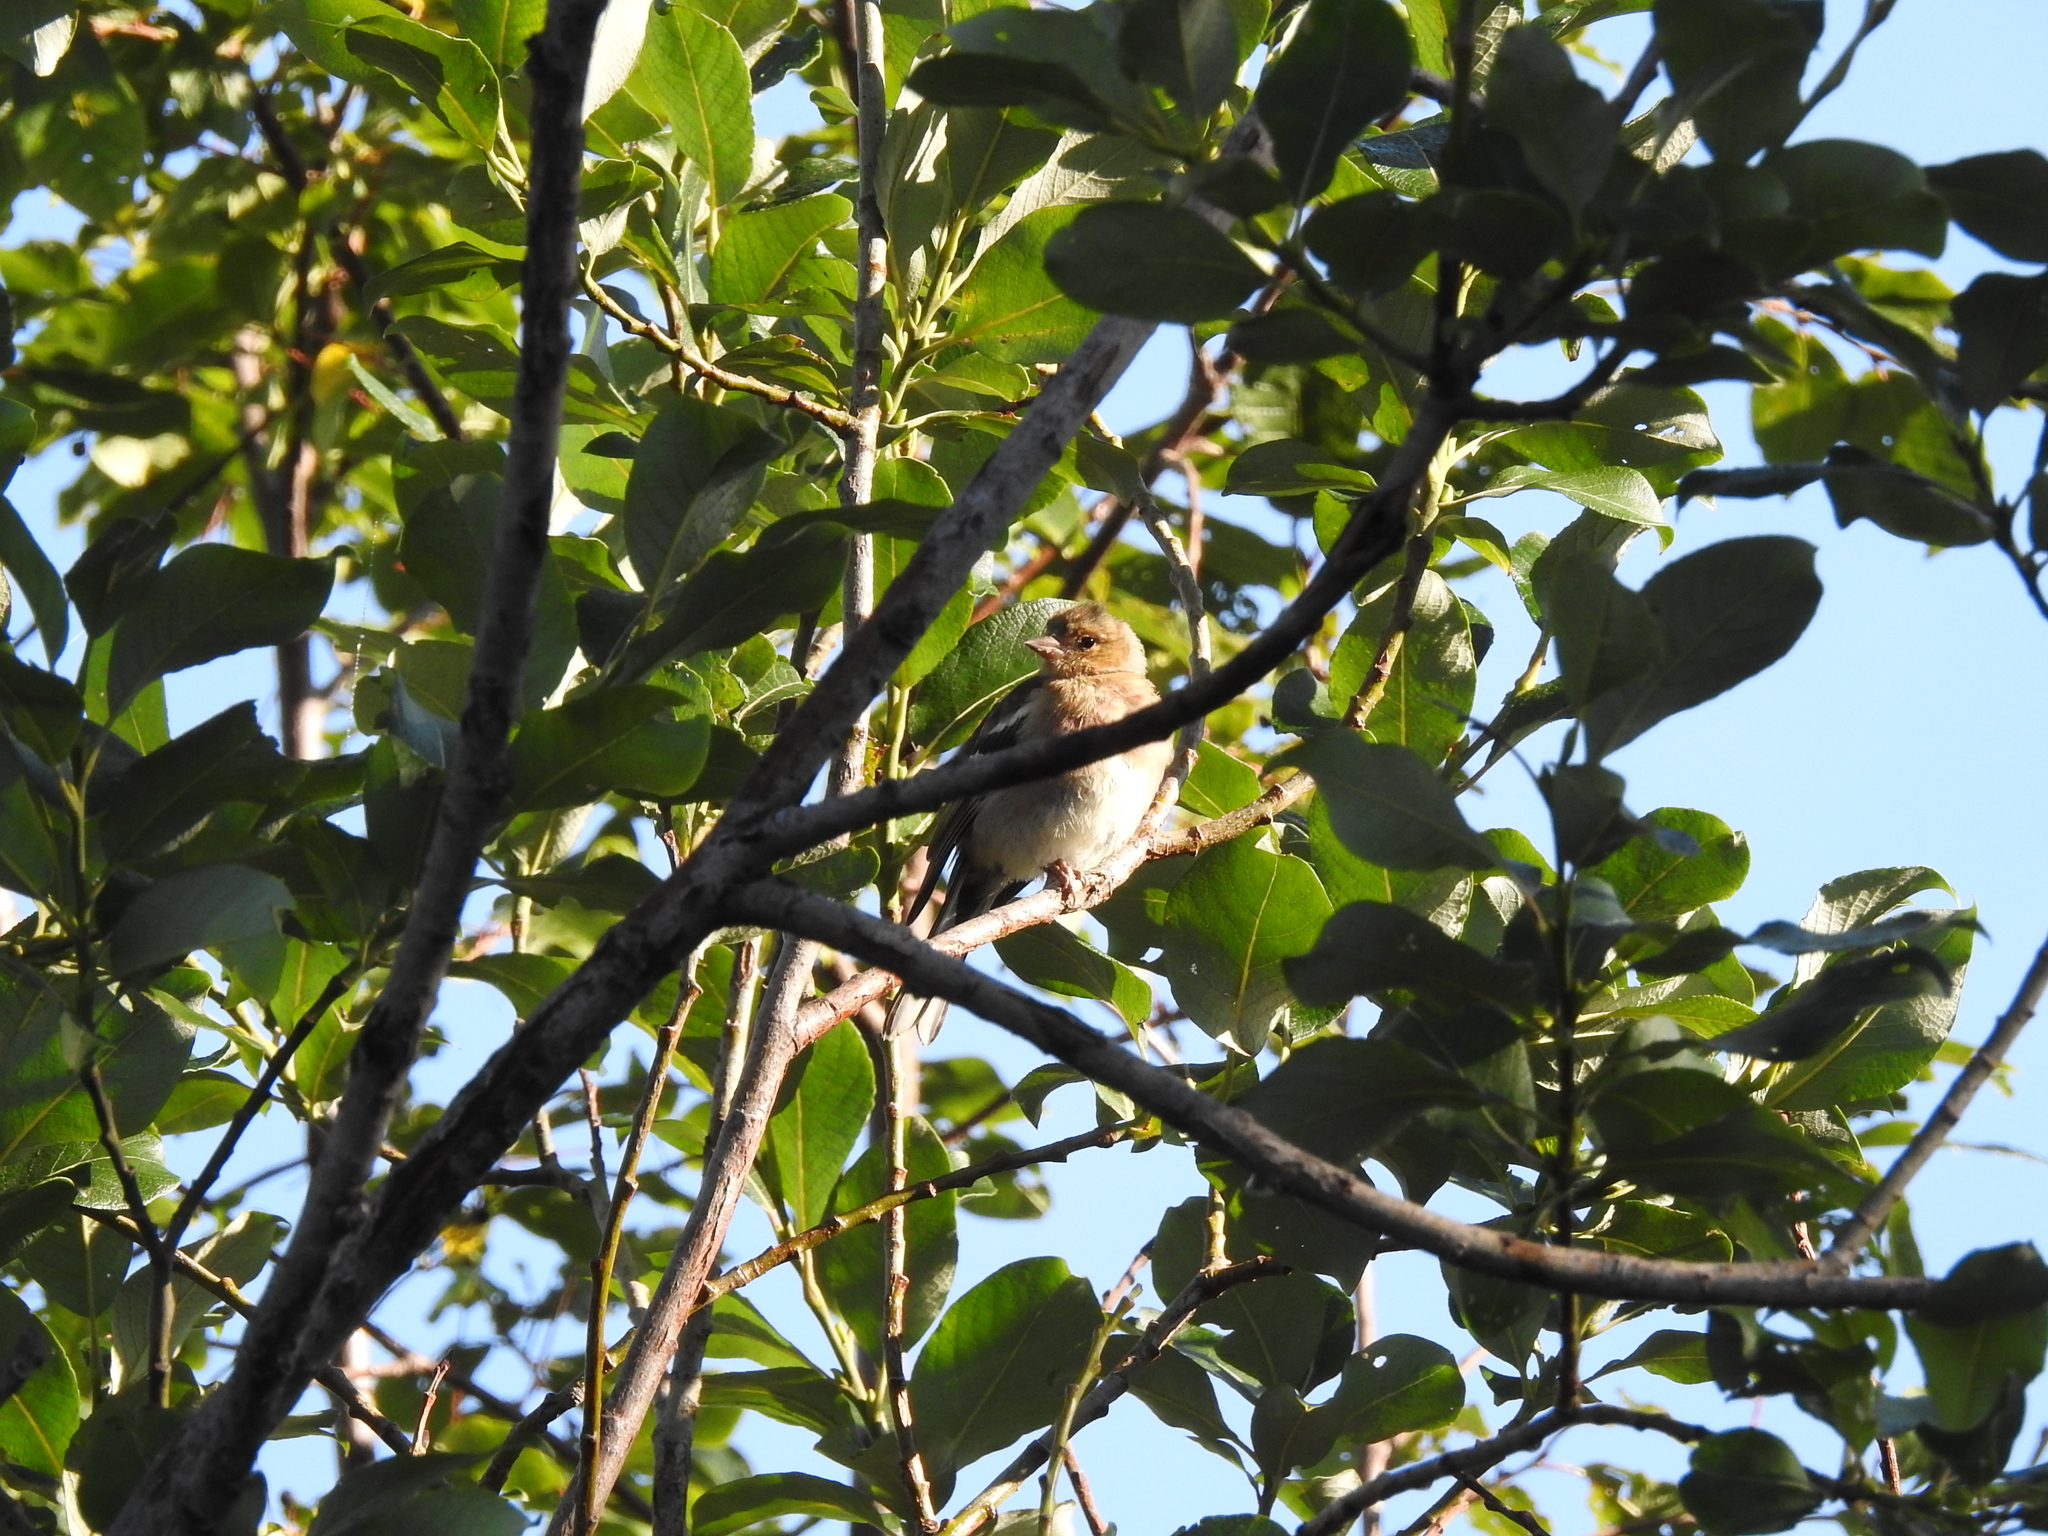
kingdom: Animalia
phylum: Chordata
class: Aves
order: Passeriformes
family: Fringillidae
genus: Fringilla
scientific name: Fringilla coelebs
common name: Common chaffinch
